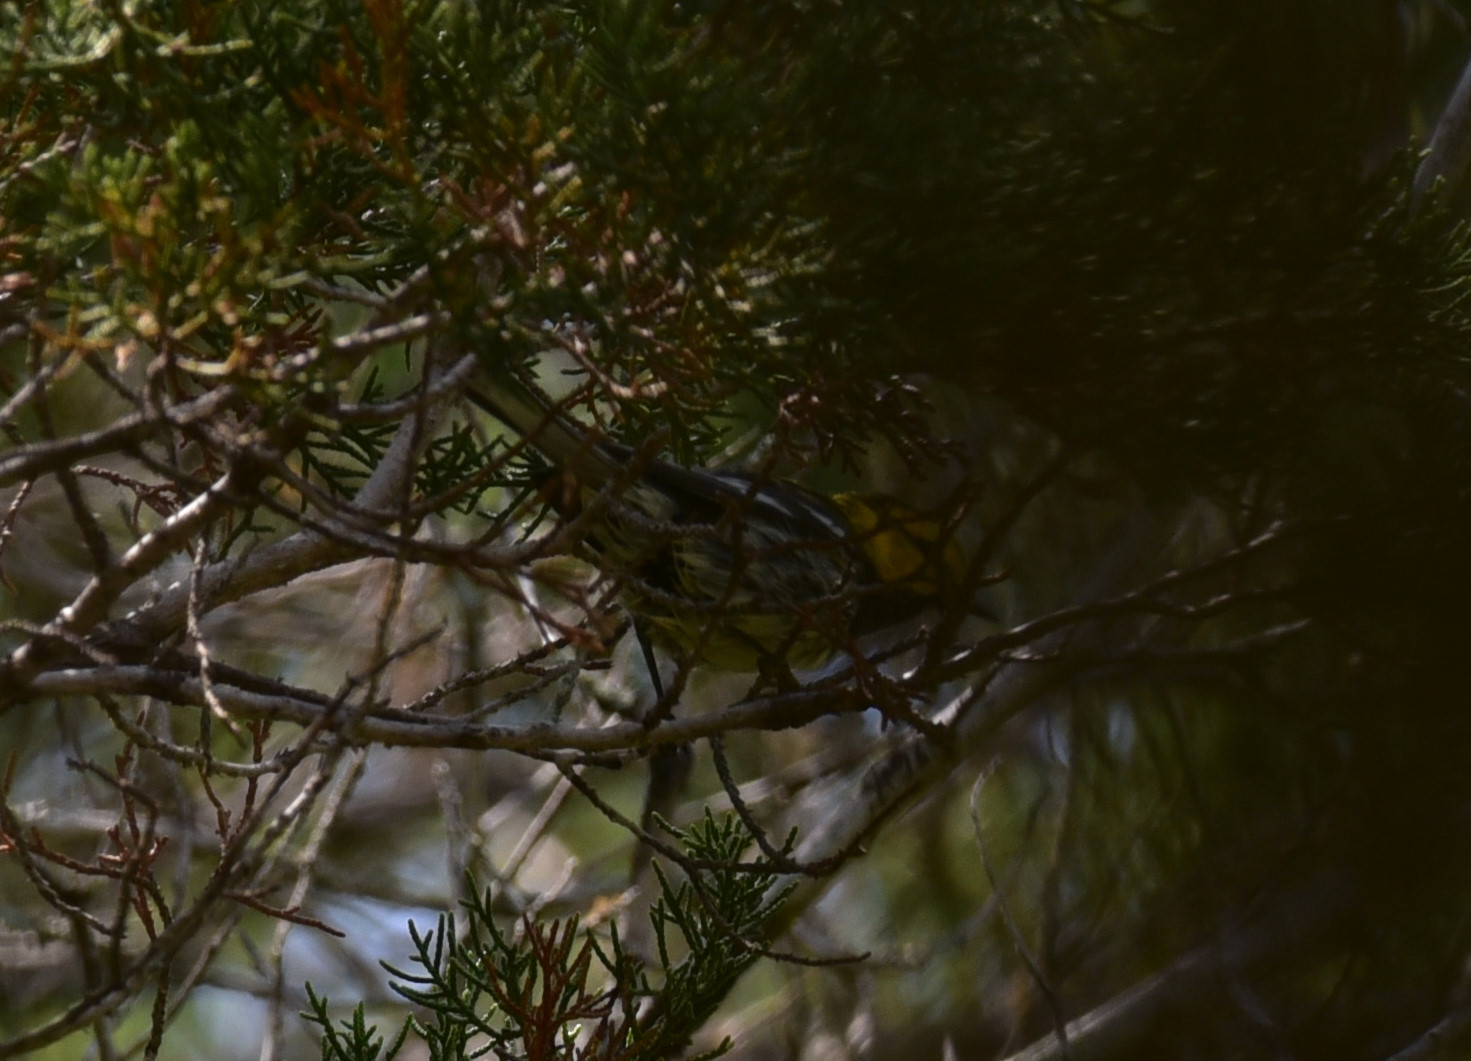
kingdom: Animalia
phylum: Chordata
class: Aves
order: Passeriformes
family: Parulidae
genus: Setophaga
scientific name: Setophaga chrysoparia
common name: Golden-cheeked warbler
